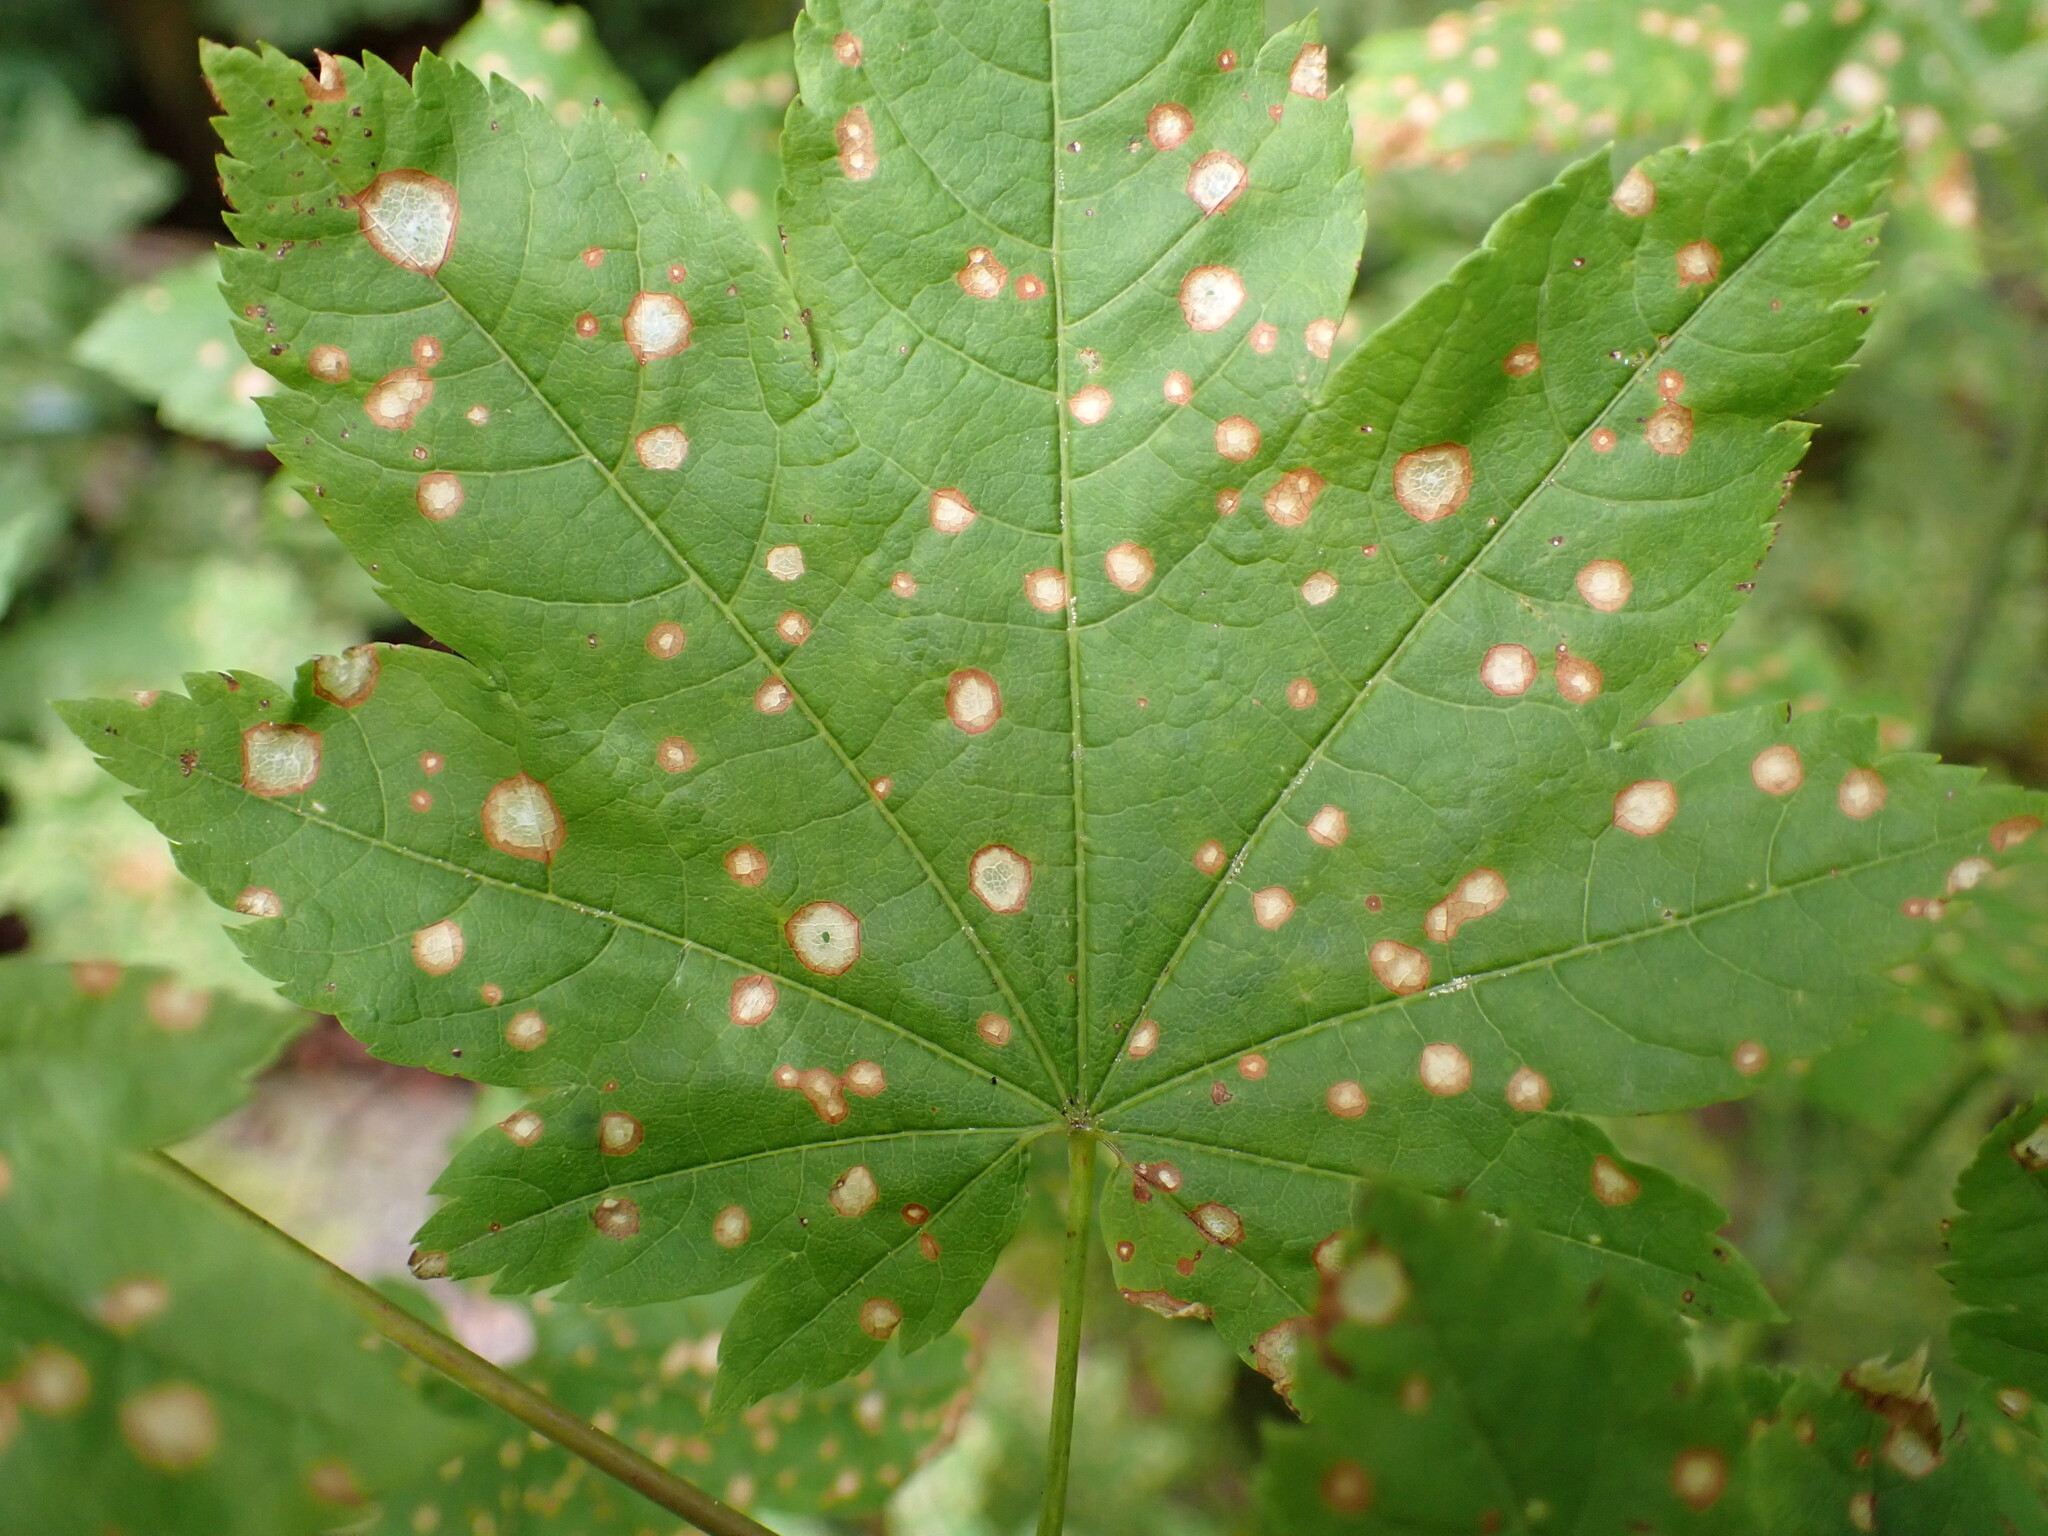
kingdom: Plantae
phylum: Tracheophyta
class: Magnoliopsida
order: Sapindales
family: Sapindaceae
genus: Acer
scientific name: Acer circinatum
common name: Vine maple
